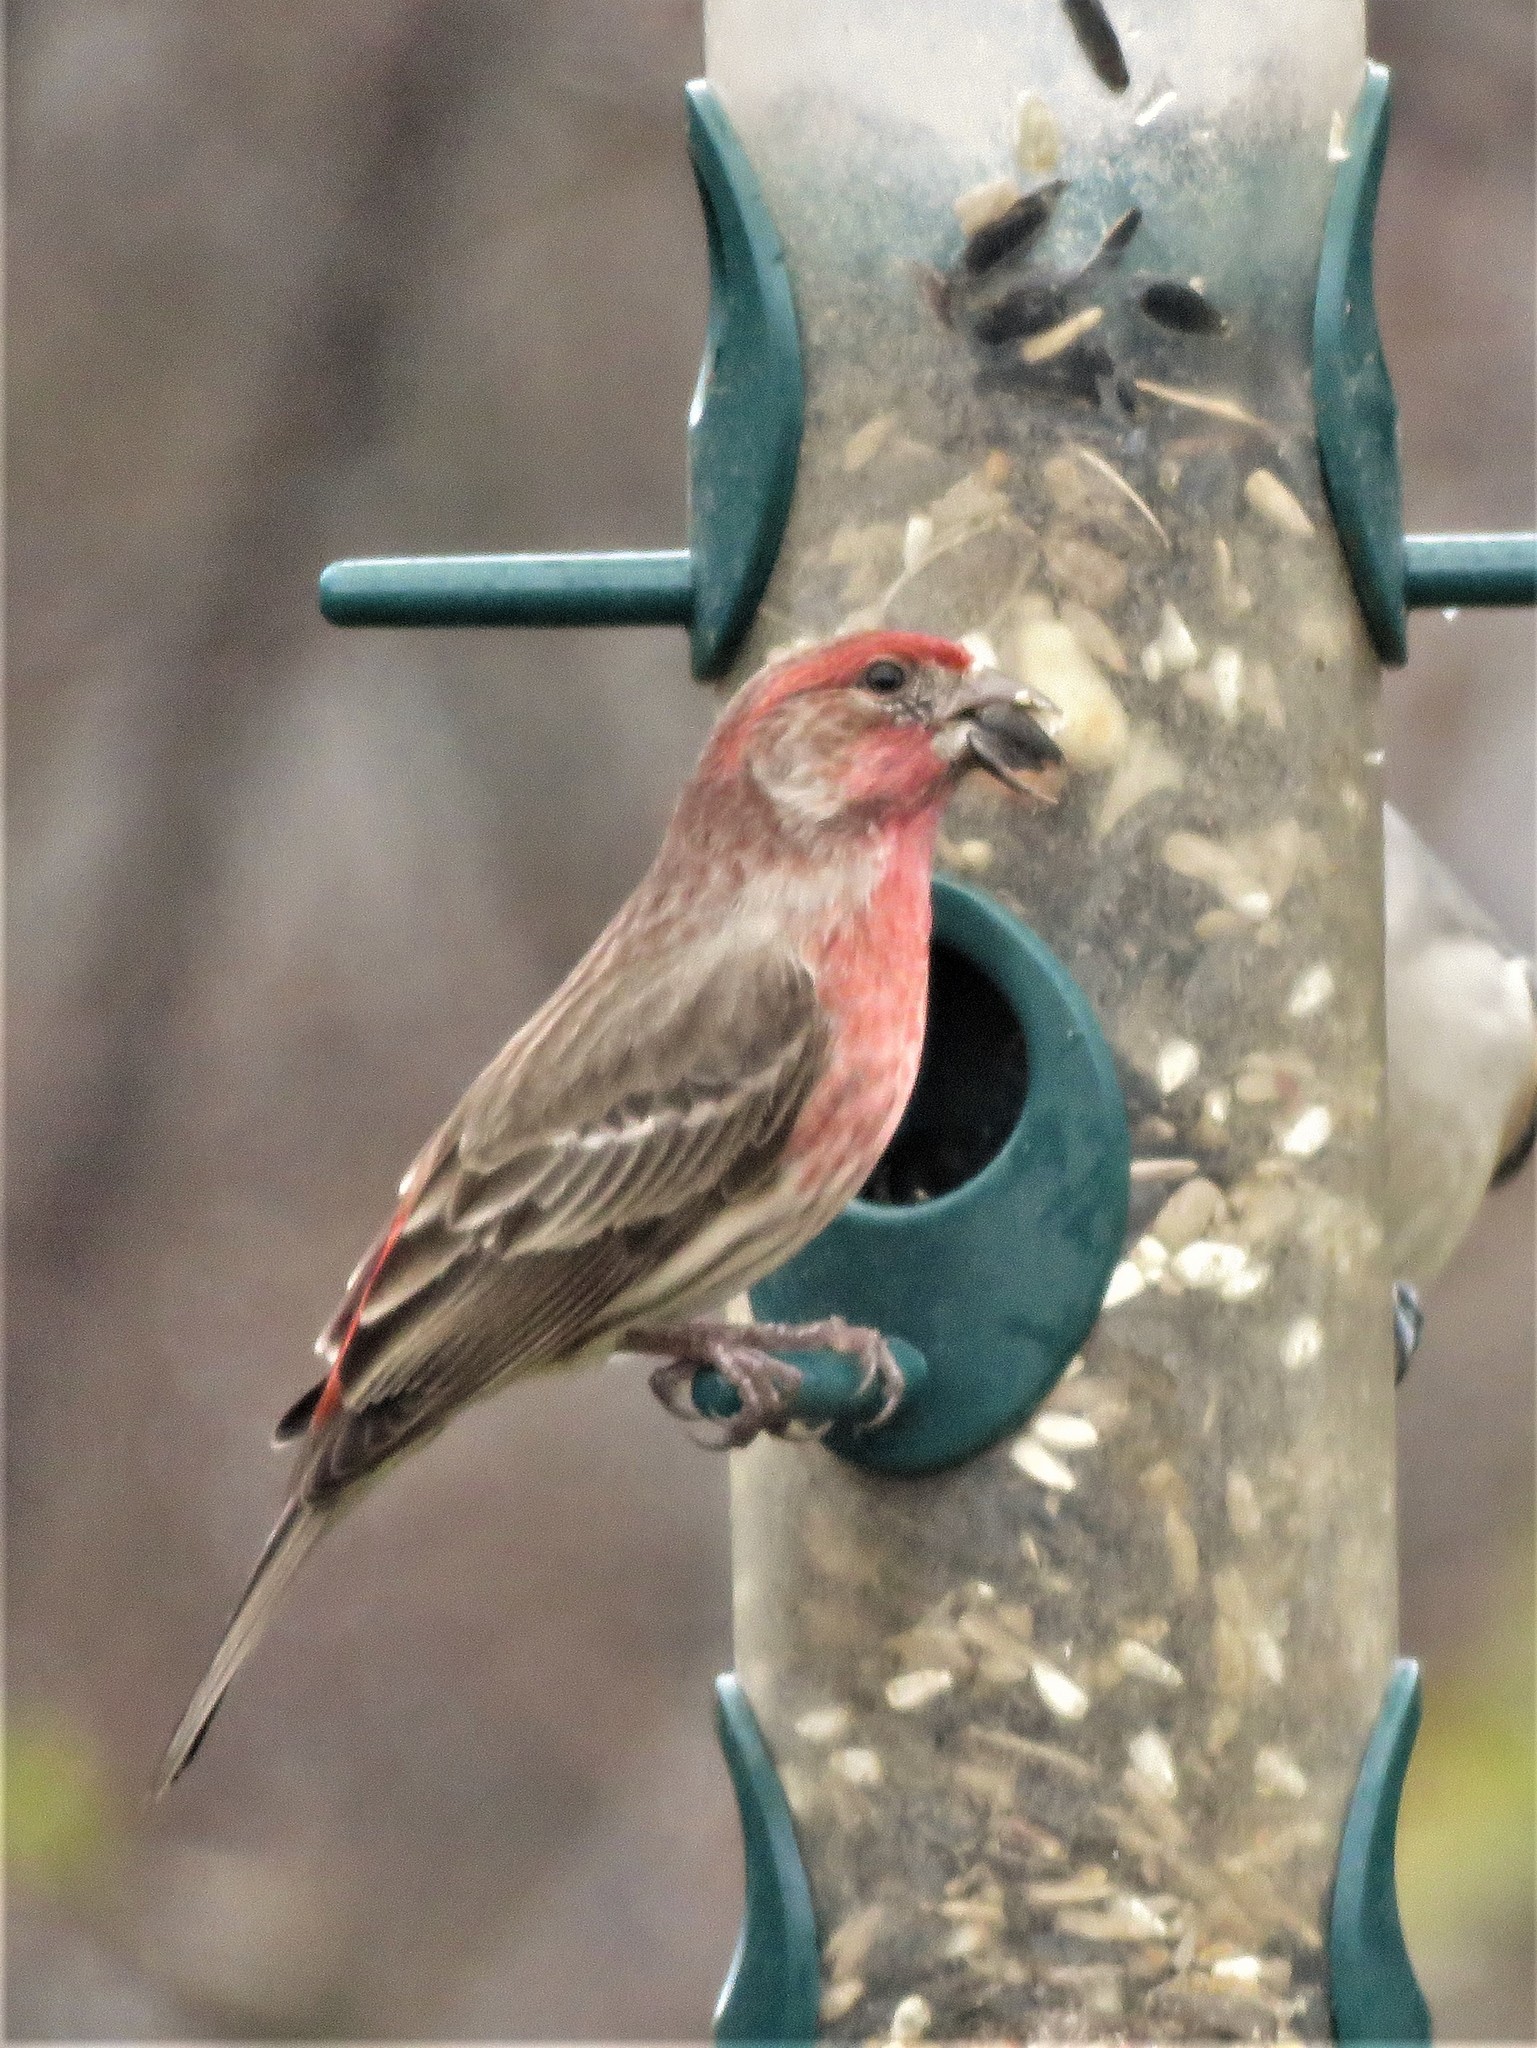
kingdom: Animalia
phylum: Chordata
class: Aves
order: Passeriformes
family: Fringillidae
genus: Haemorhous
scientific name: Haemorhous mexicanus
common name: House finch
